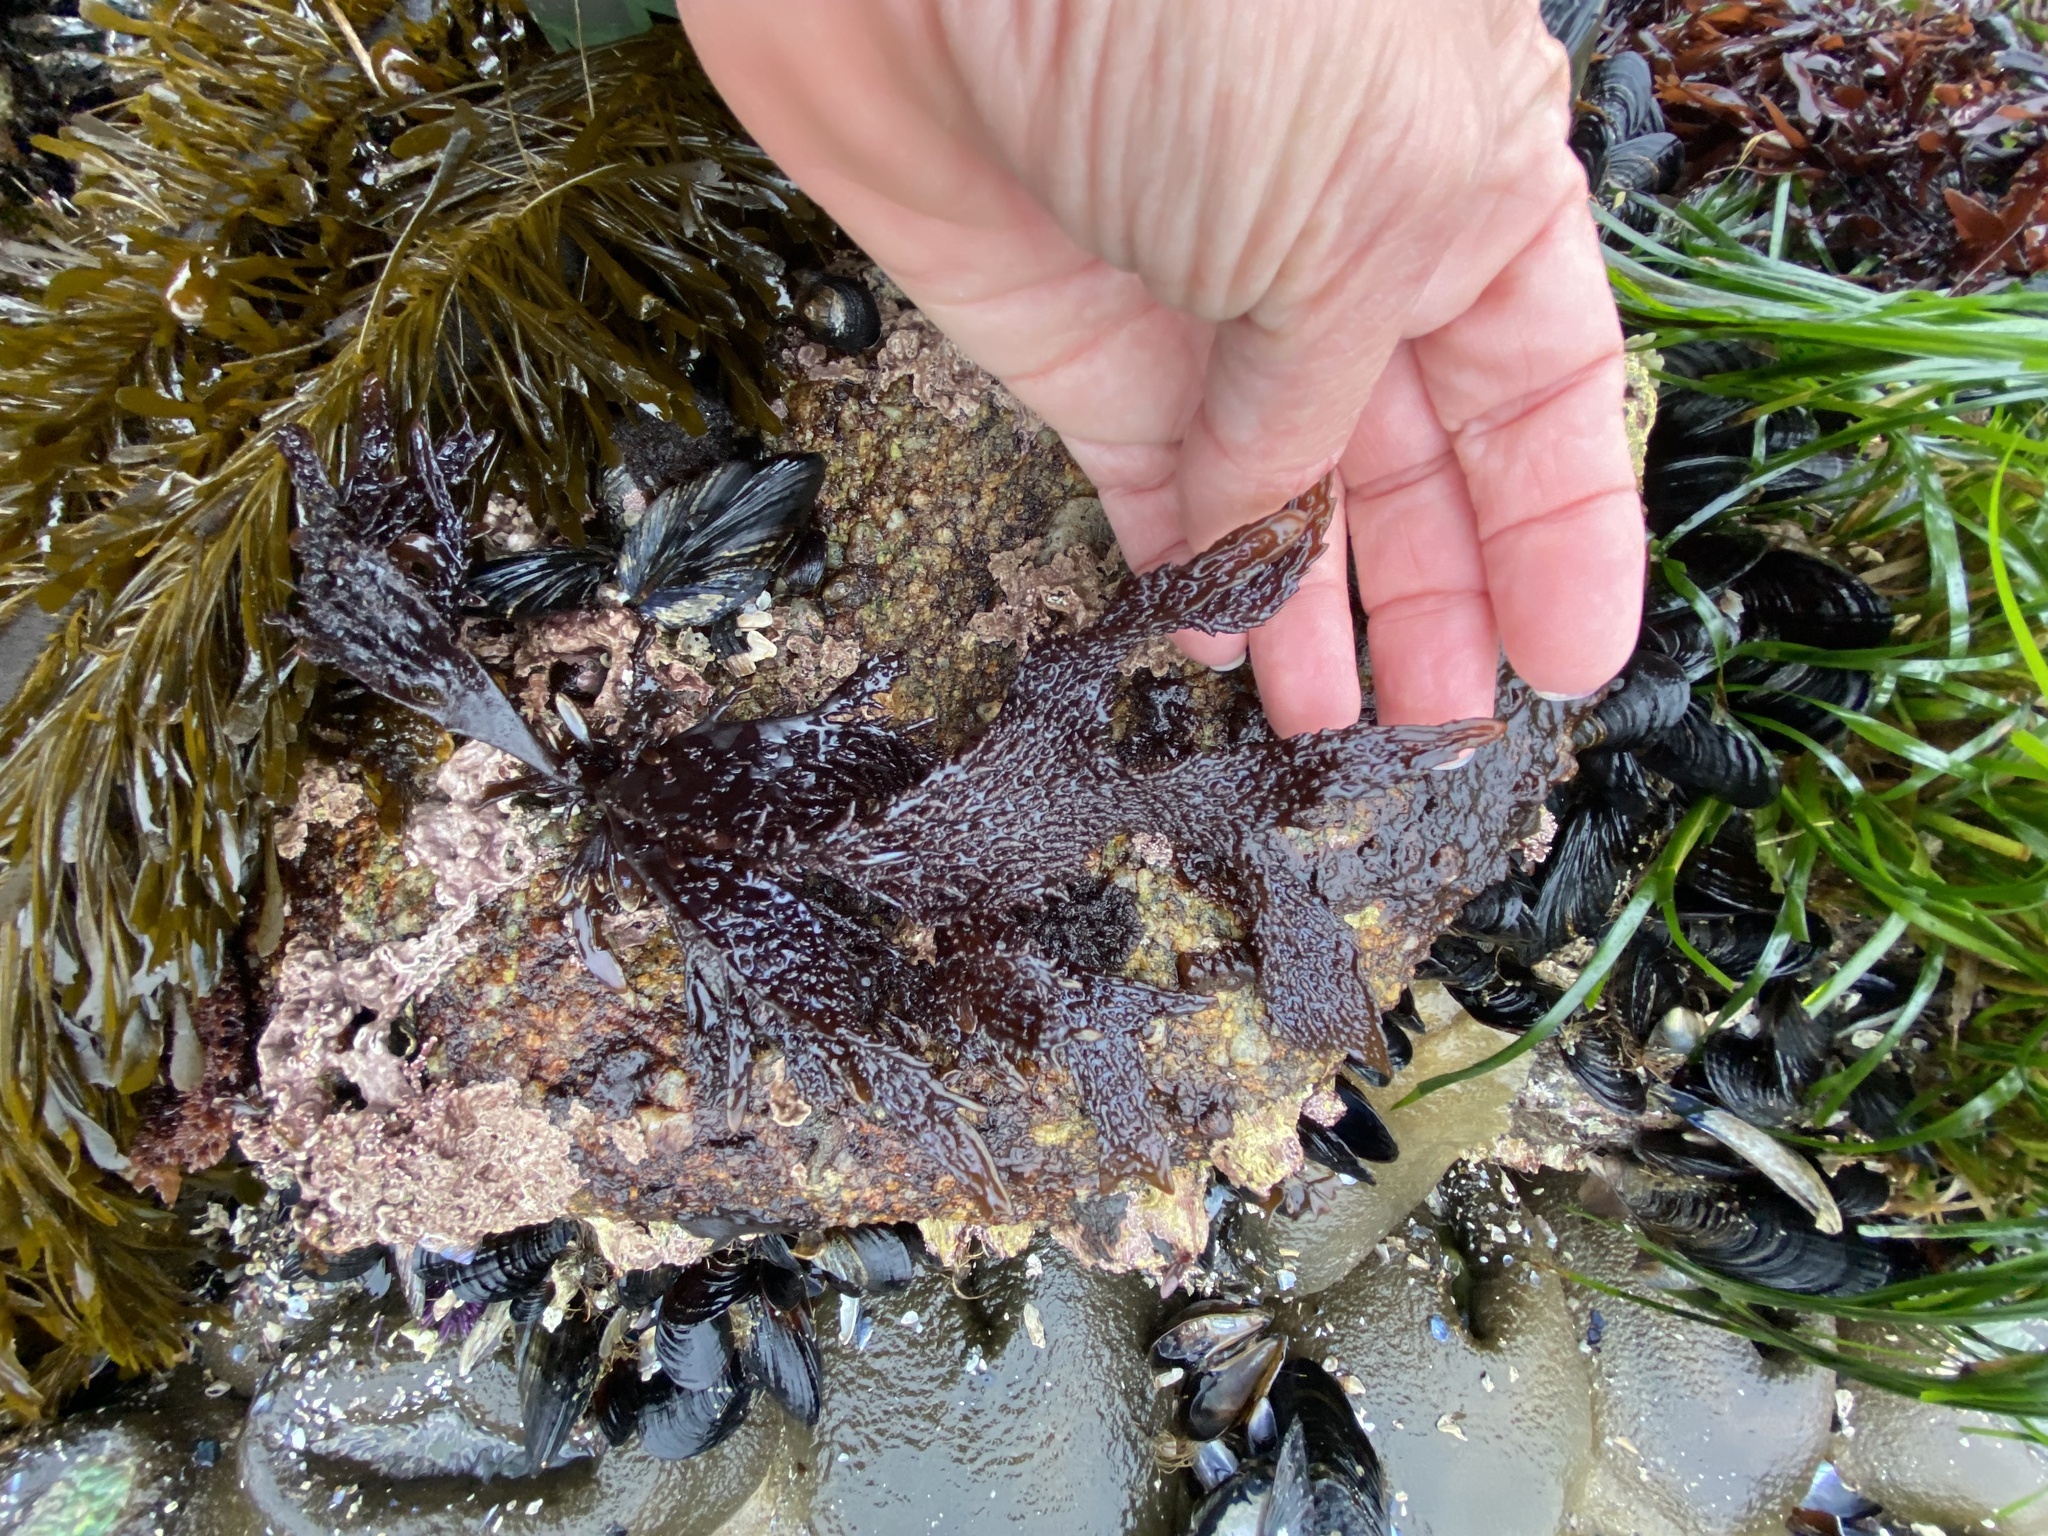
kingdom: Plantae
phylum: Rhodophyta
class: Florideophyceae
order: Gigartinales
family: Phyllophoraceae
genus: Mastocarpus
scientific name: Mastocarpus papillatus
